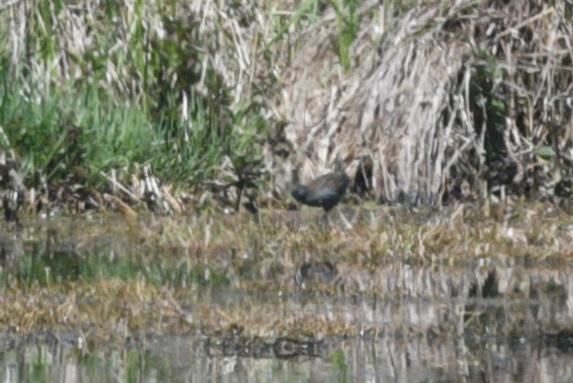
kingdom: Animalia
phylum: Chordata
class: Aves
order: Gruiformes
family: Rallidae
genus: Porzana
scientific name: Porzana fluminea
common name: Australian crake
